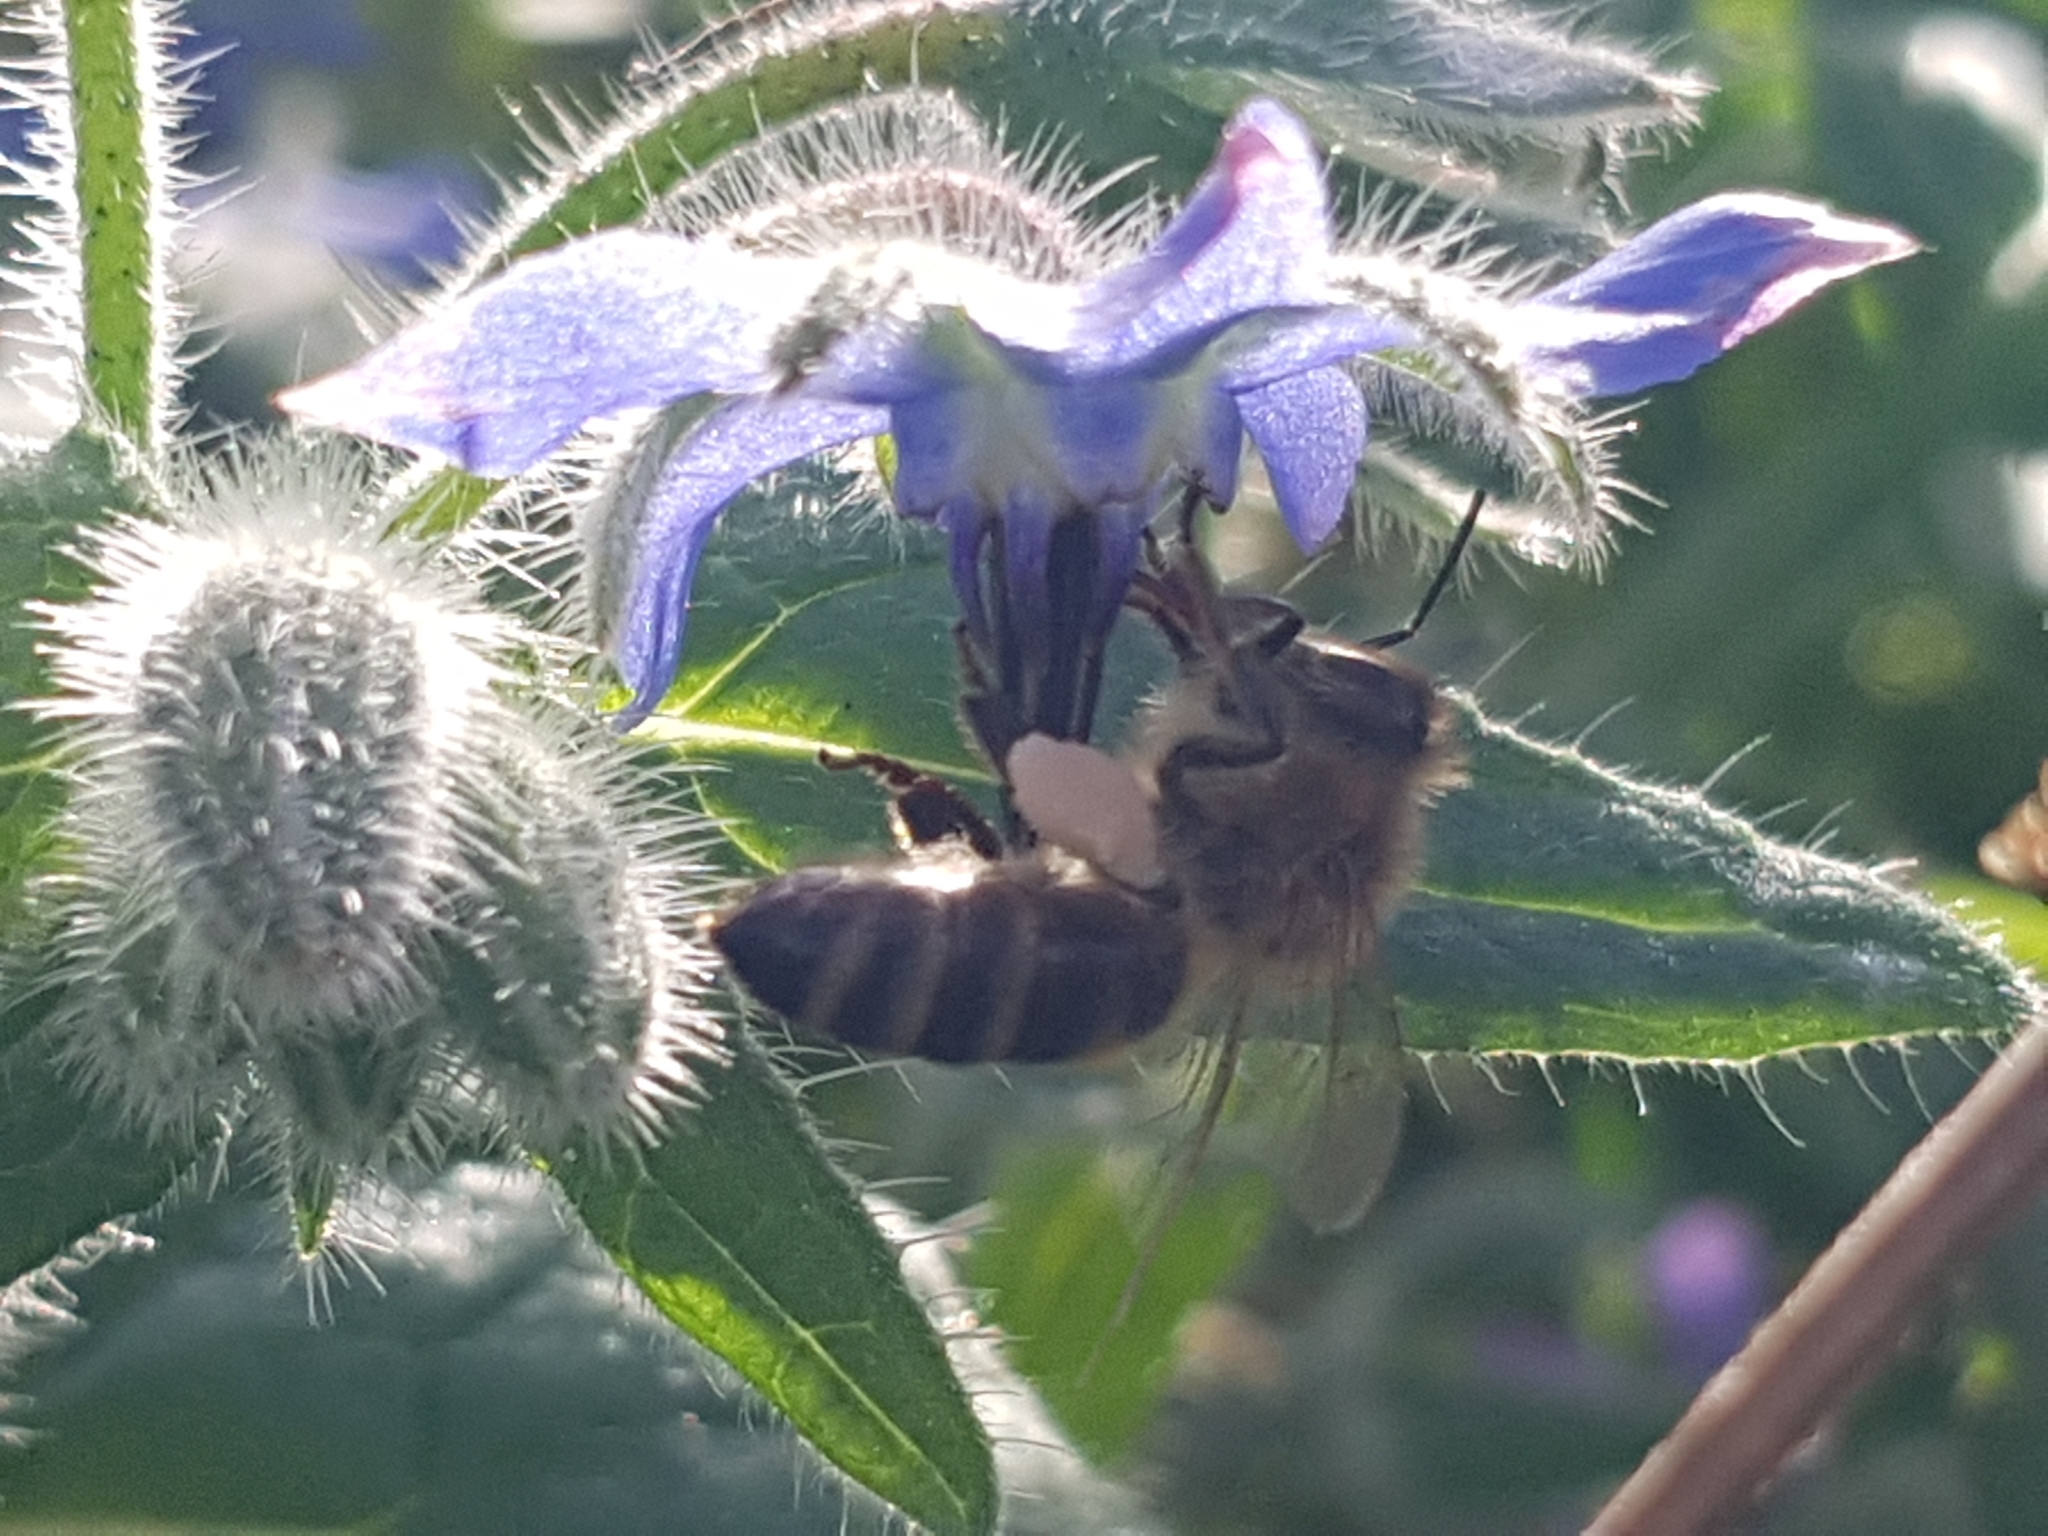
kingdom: Animalia
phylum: Arthropoda
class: Insecta
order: Hymenoptera
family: Apidae
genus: Apis
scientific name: Apis mellifera
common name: Honey bee
